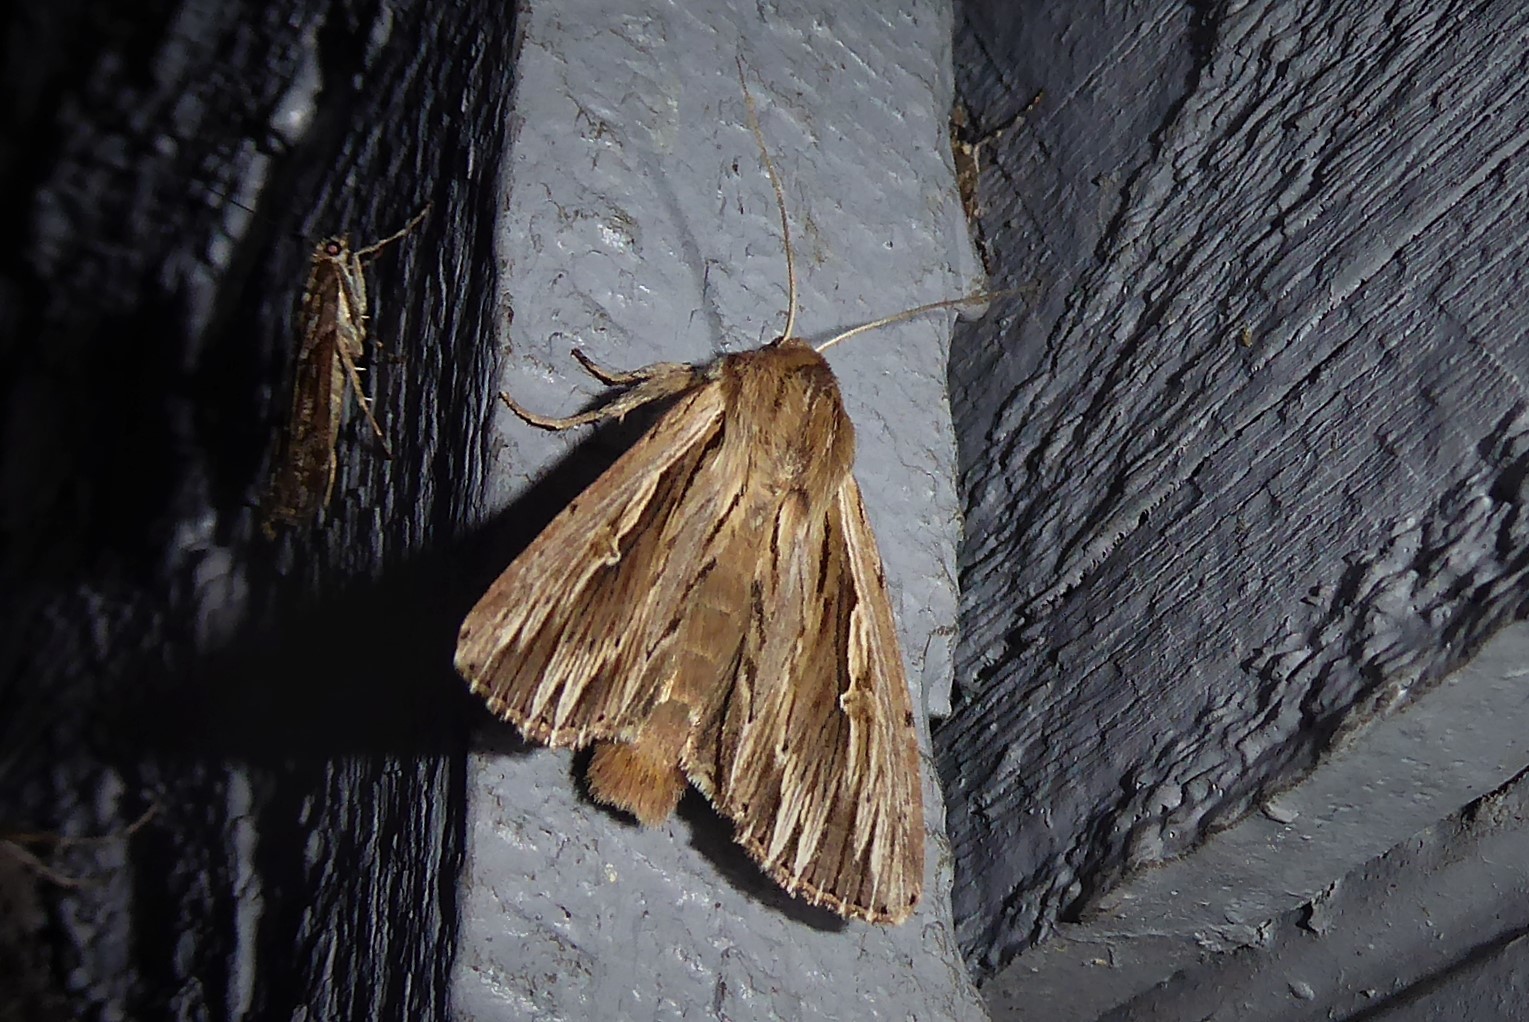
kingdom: Animalia
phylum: Arthropoda
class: Insecta
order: Lepidoptera
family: Noctuidae
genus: Persectania
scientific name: Persectania aversa
